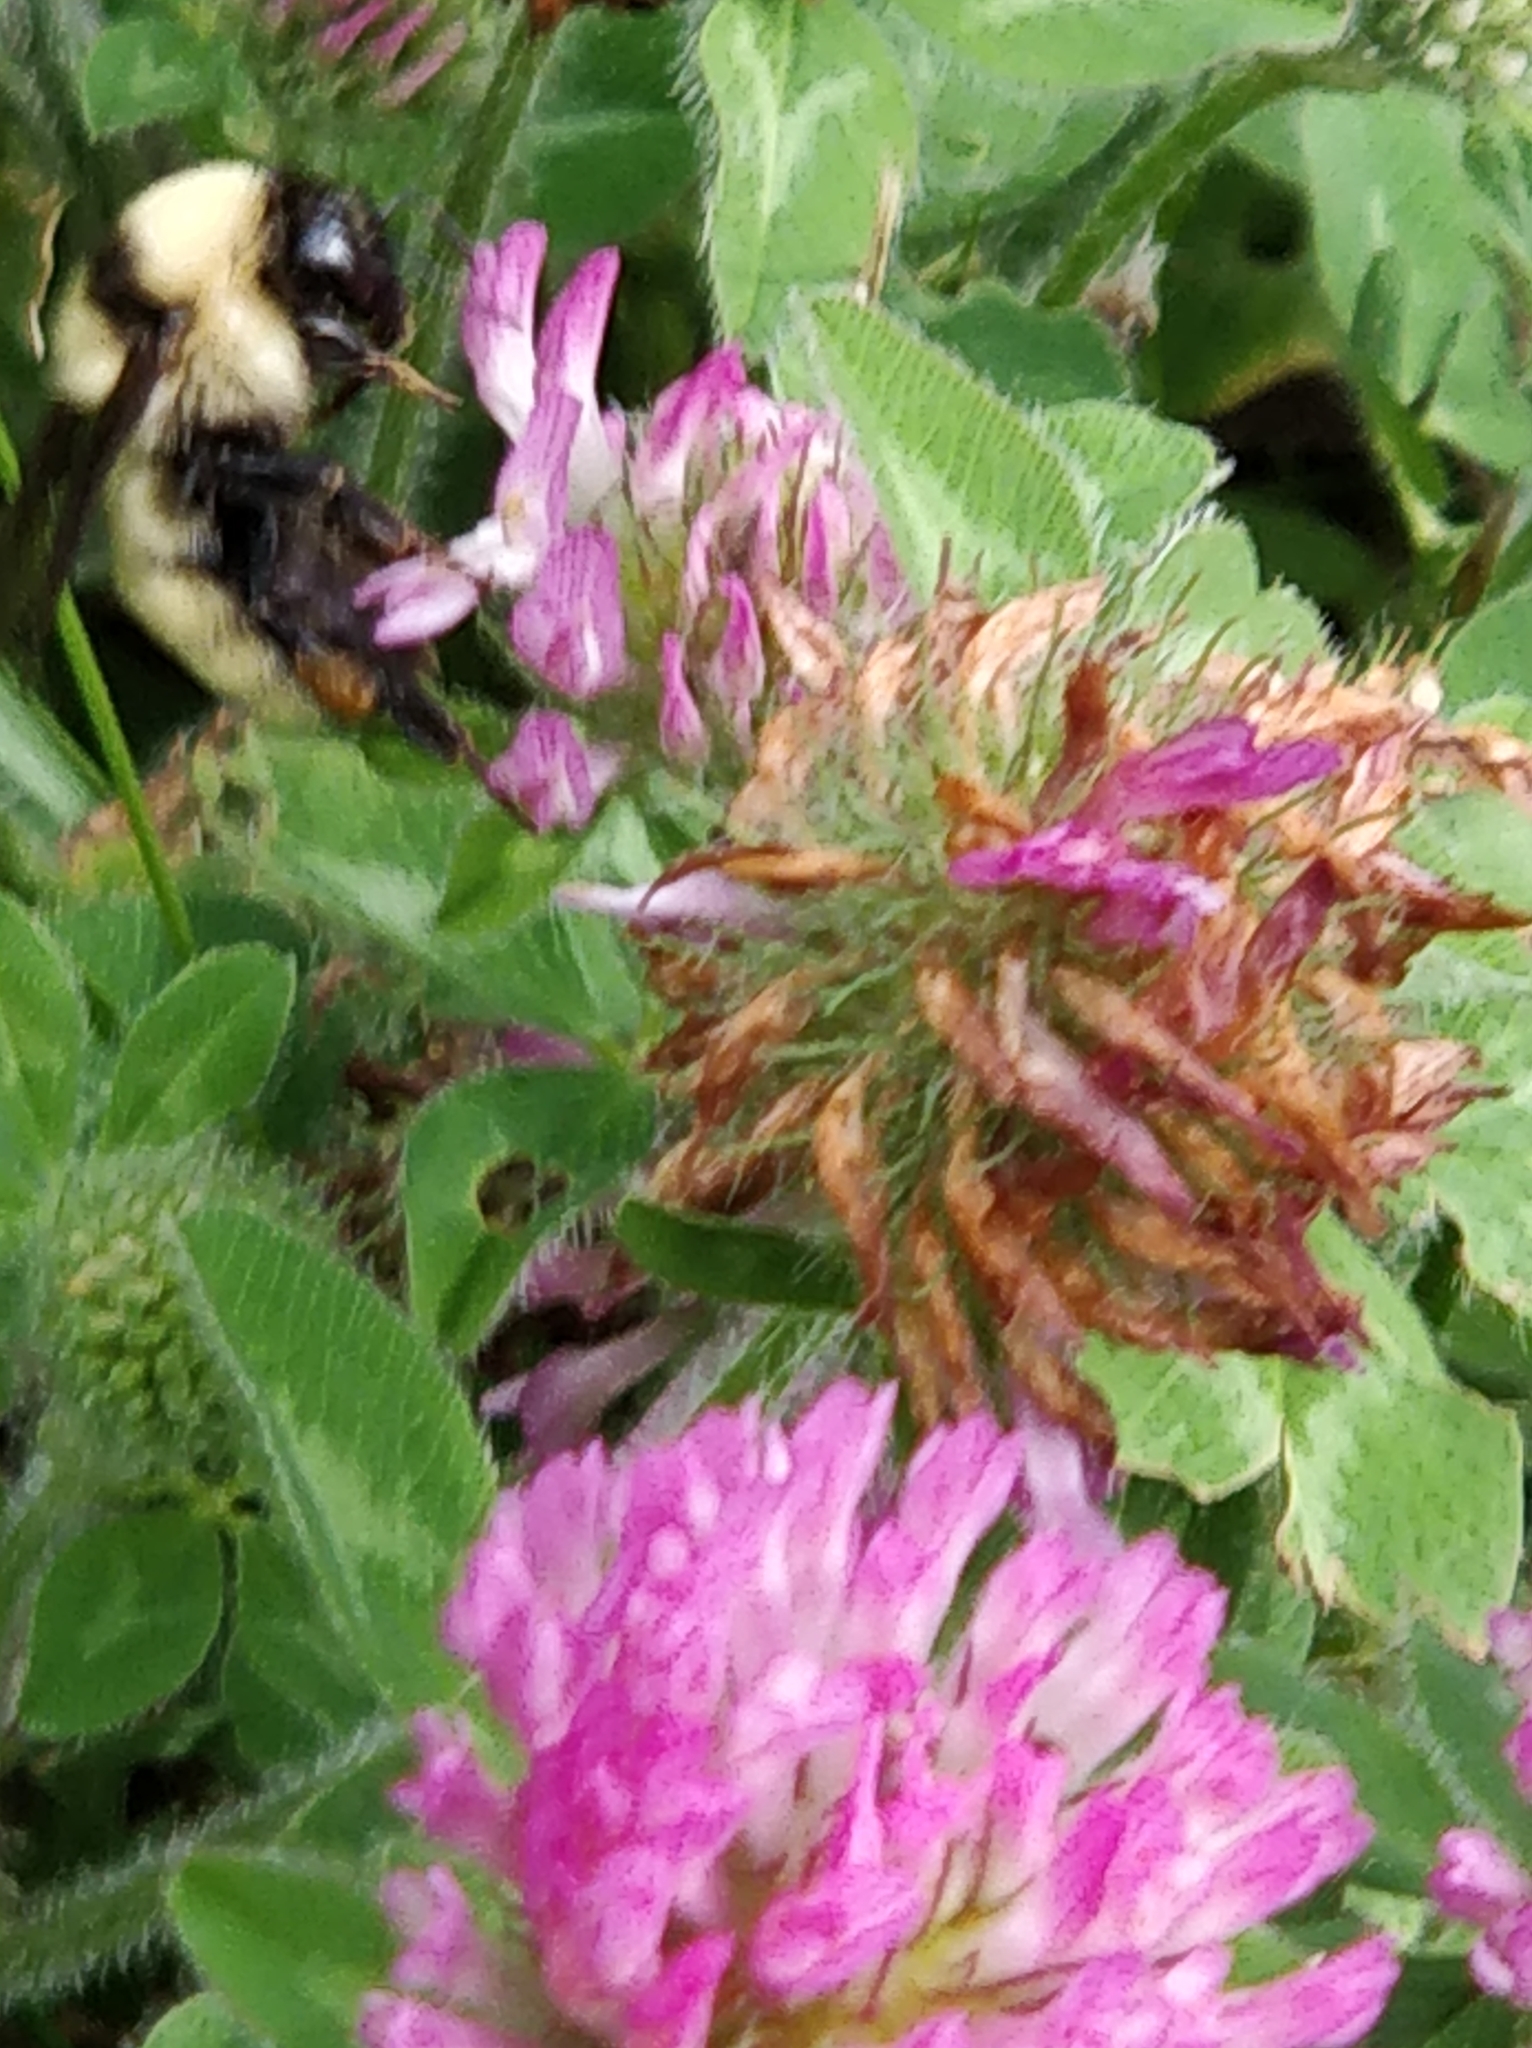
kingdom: Animalia
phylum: Arthropoda
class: Insecta
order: Hymenoptera
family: Apidae
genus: Bombus
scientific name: Bombus fervidus
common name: Yellow bumble bee
